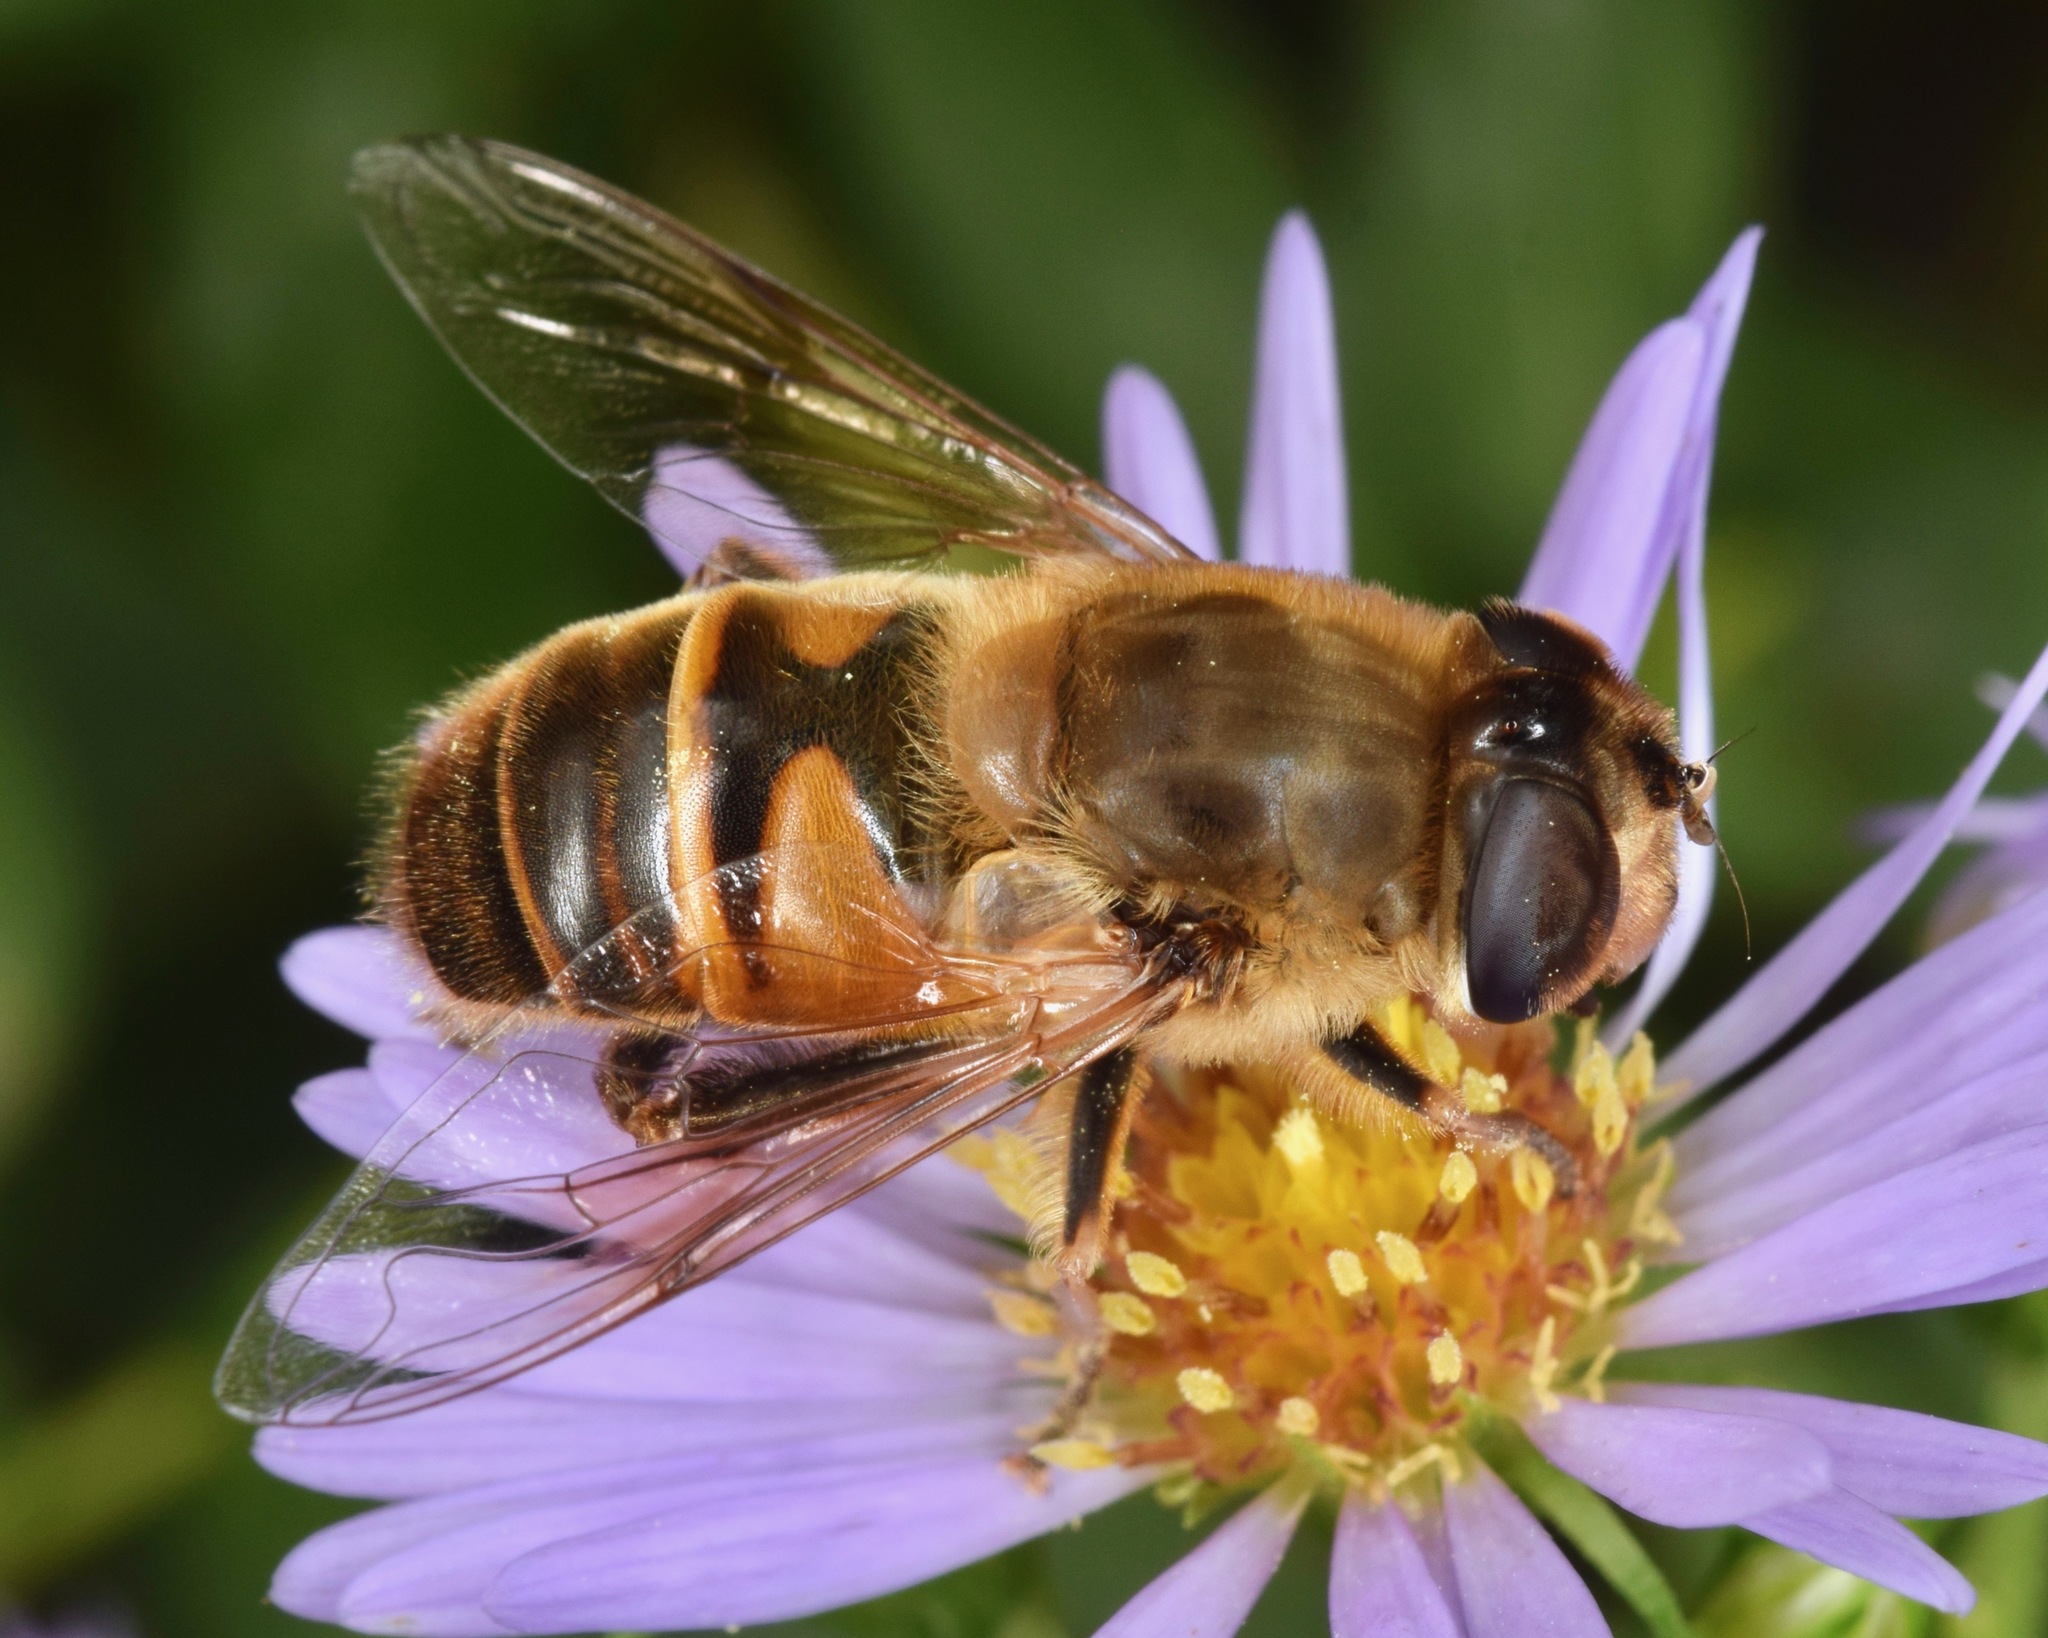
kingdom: Animalia
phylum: Arthropoda
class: Insecta
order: Diptera
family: Syrphidae
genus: Eristalis
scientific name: Eristalis tenax
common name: Drone fly
